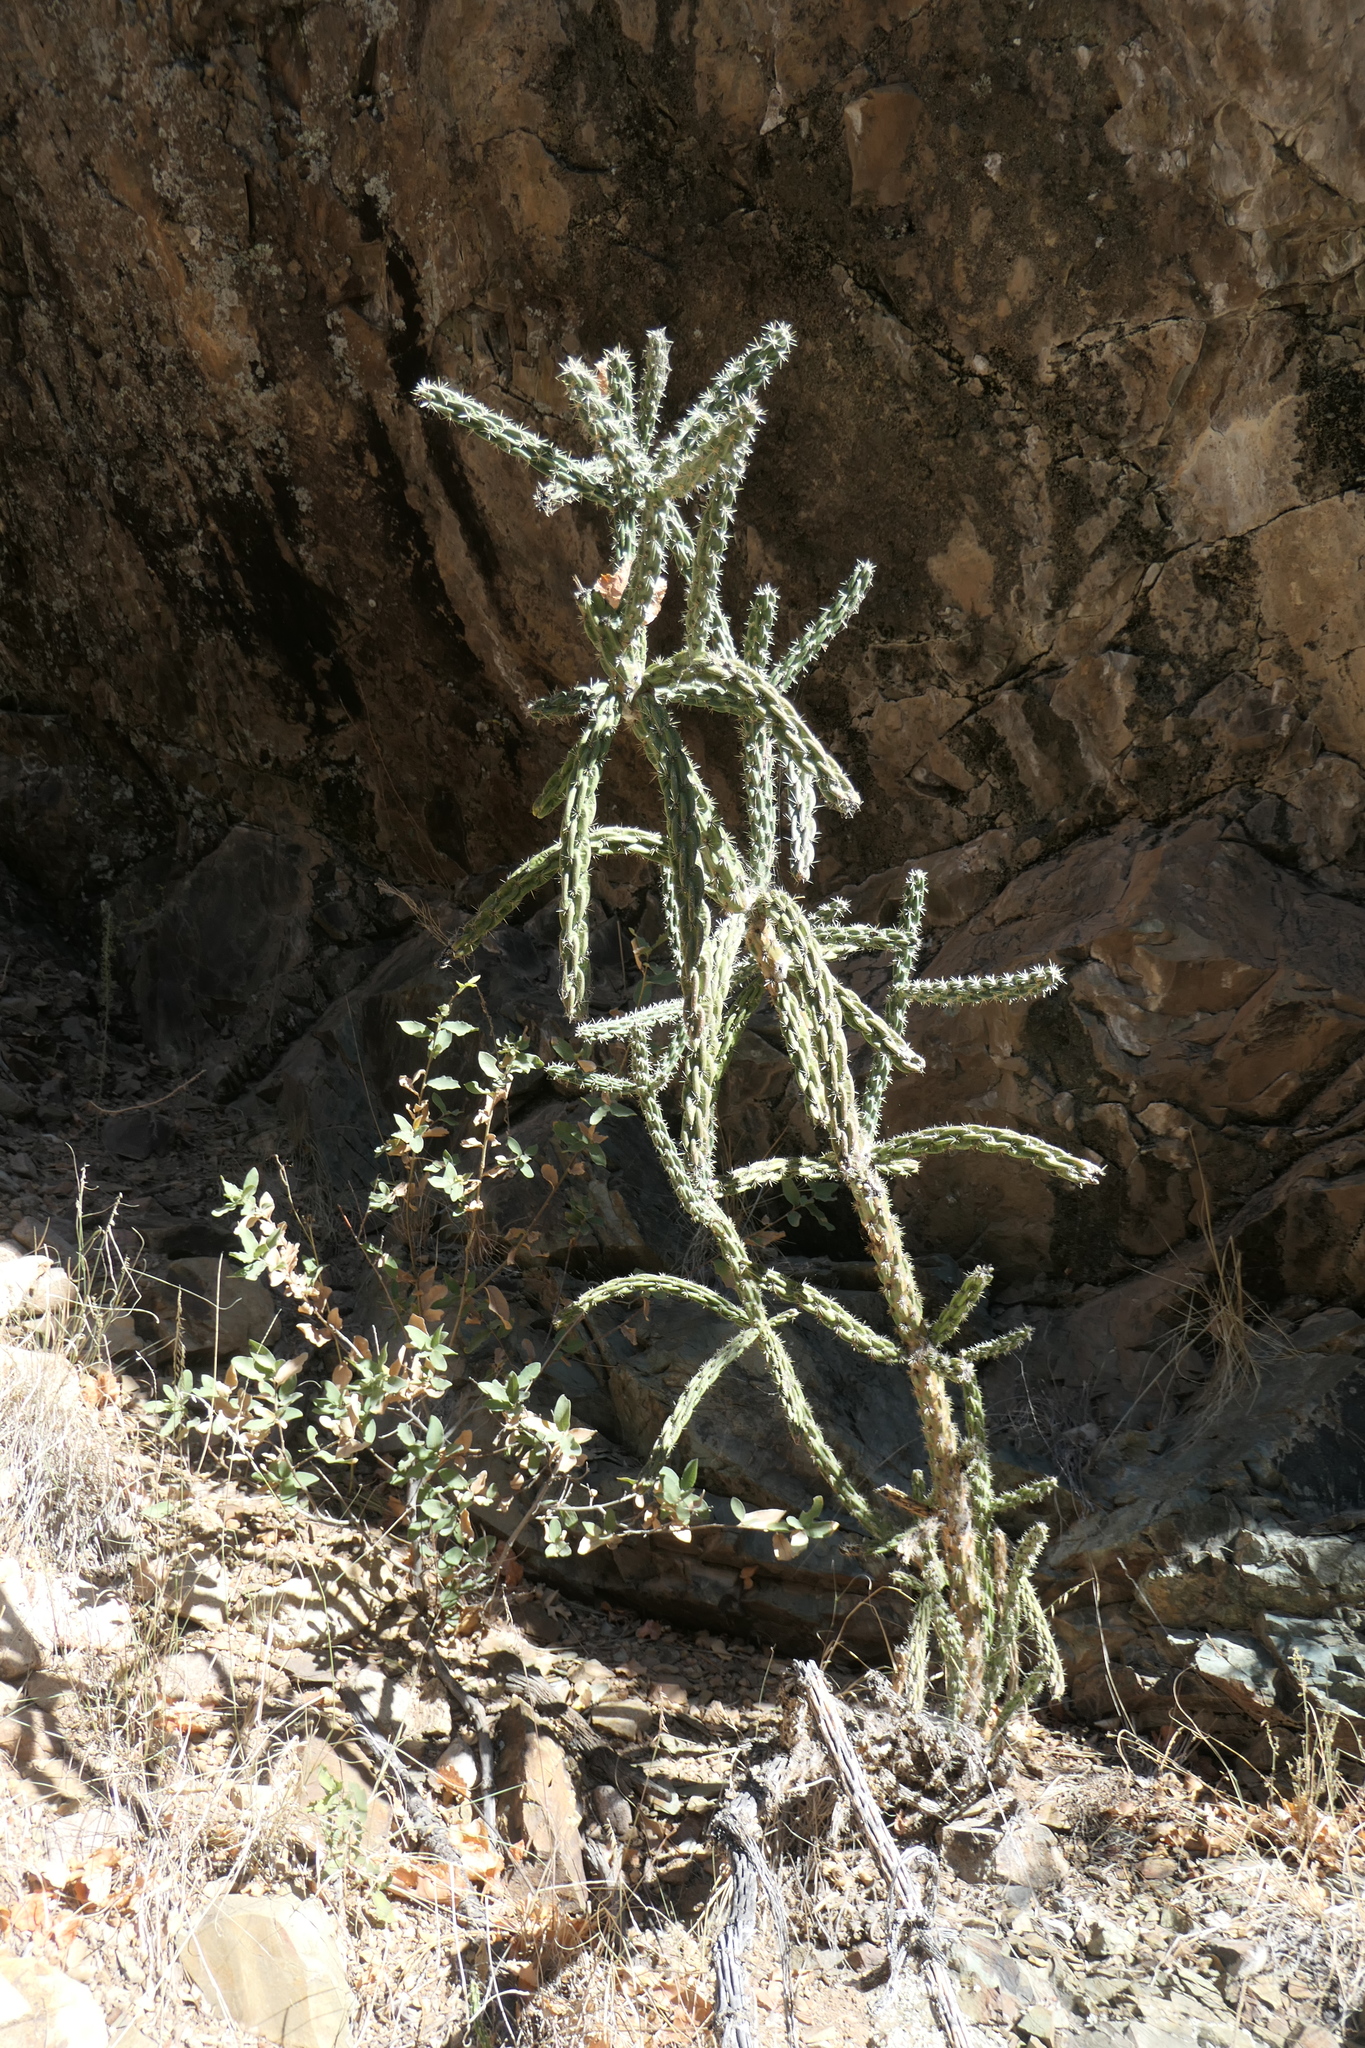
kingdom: Plantae
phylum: Tracheophyta
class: Magnoliopsida
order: Caryophyllales
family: Cactaceae
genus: Cylindropuntia
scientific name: Cylindropuntia imbricata
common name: Candelabrum cactus
